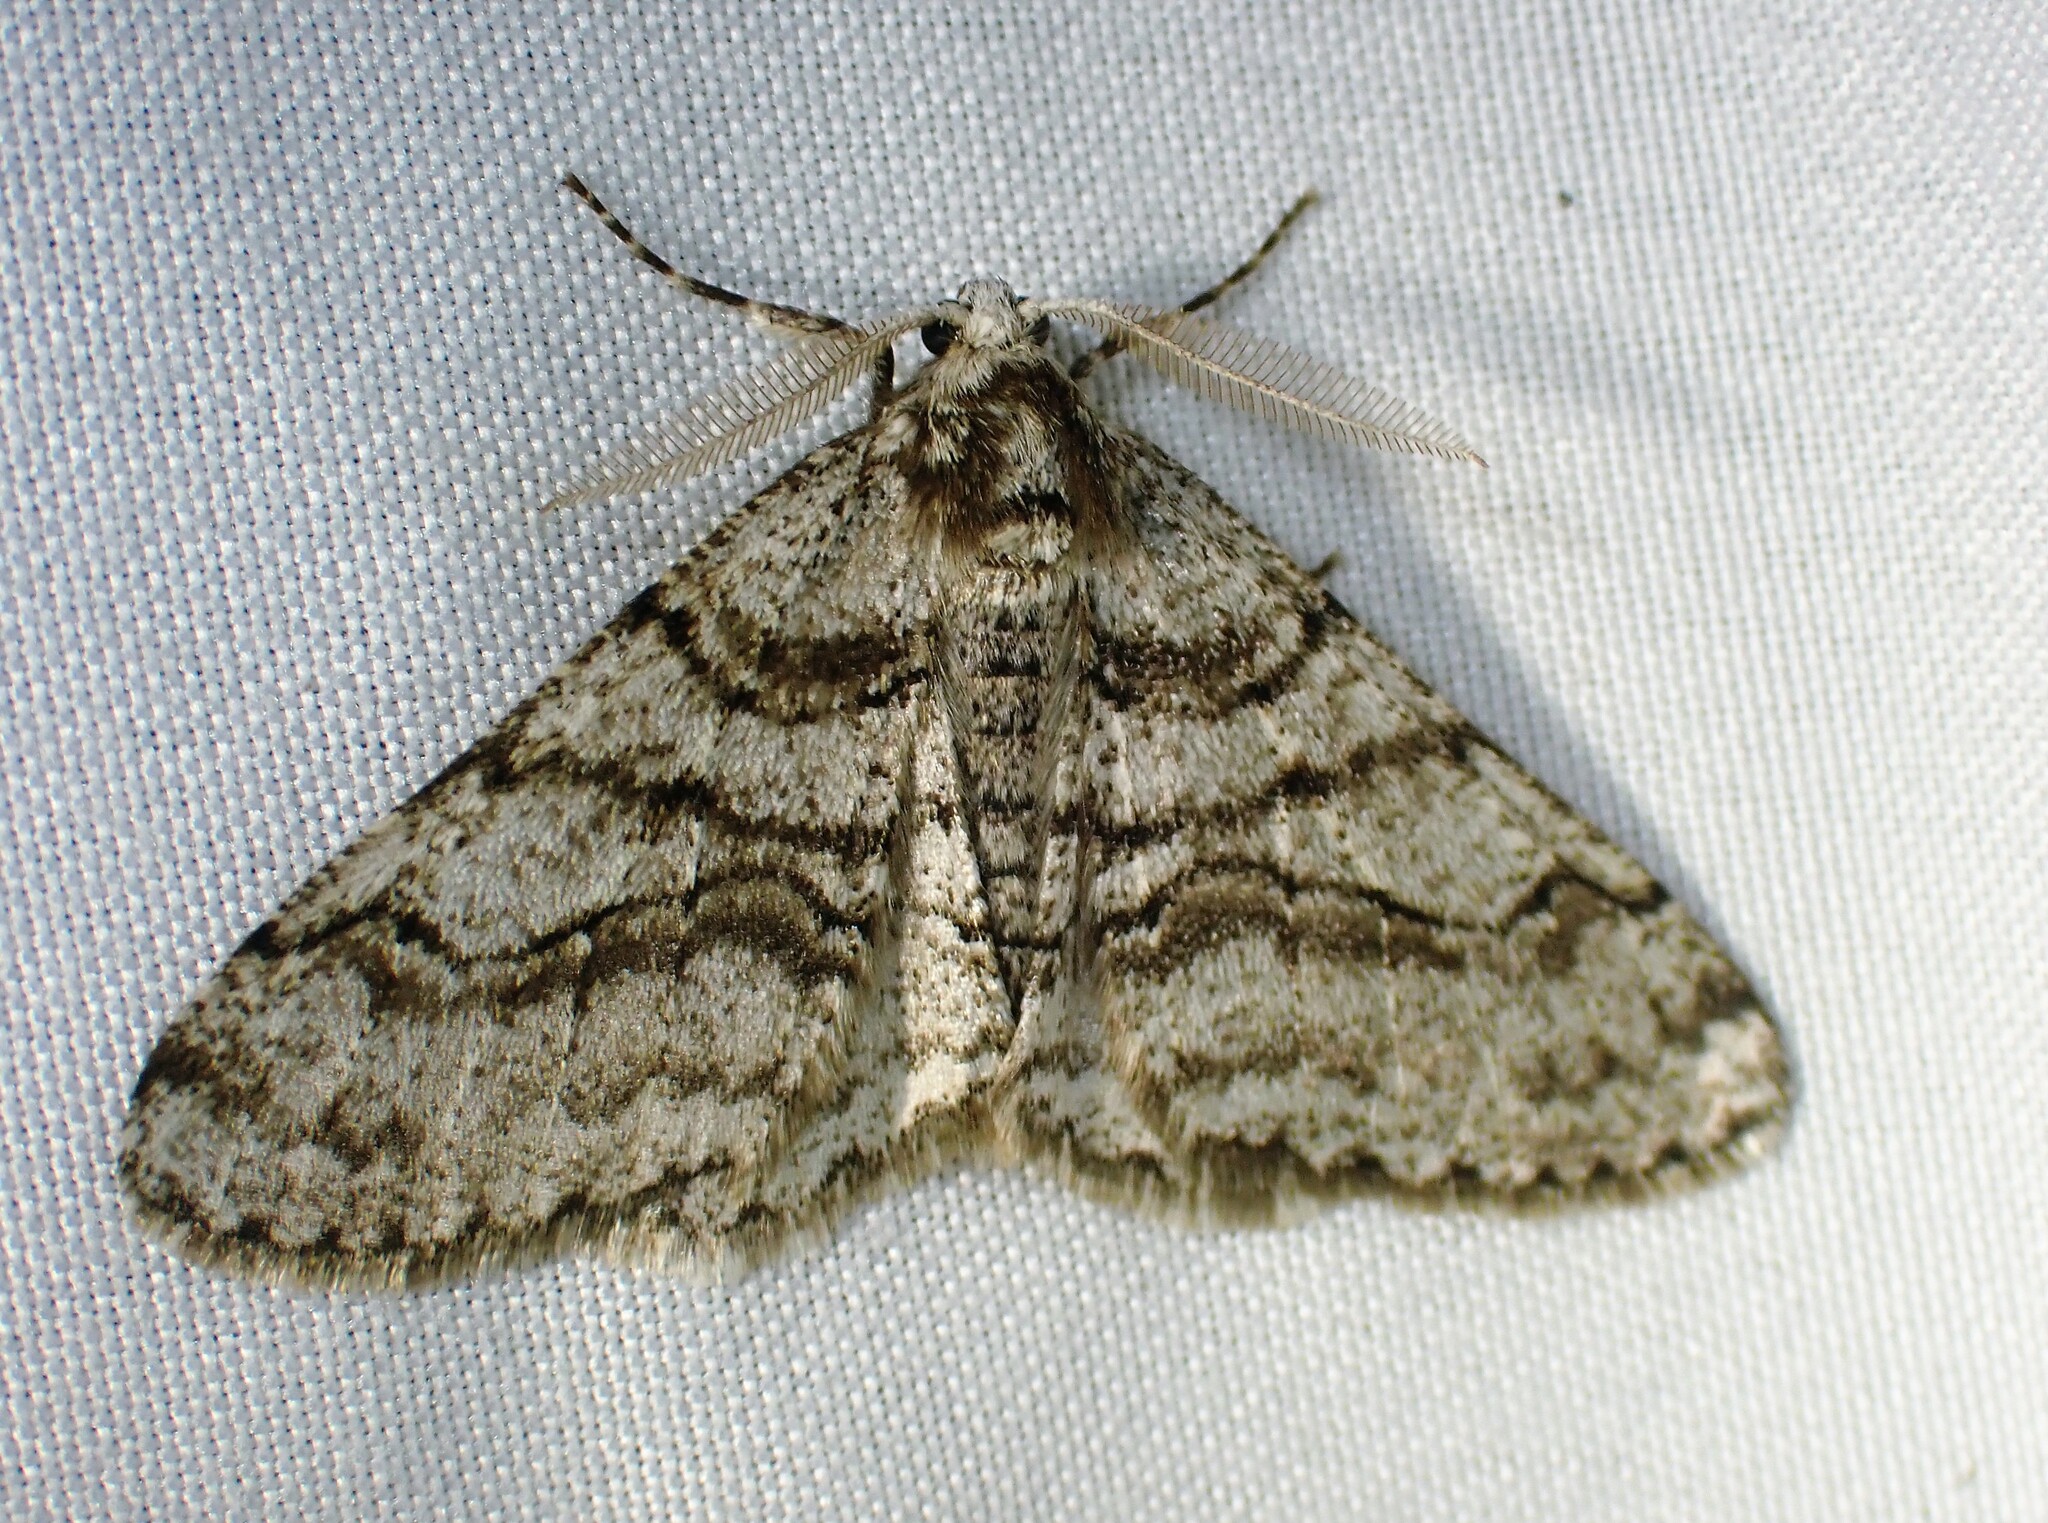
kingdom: Animalia
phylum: Arthropoda
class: Insecta
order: Lepidoptera
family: Geometridae
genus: Phigalia
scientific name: Phigalia titea
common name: Spiny looper
